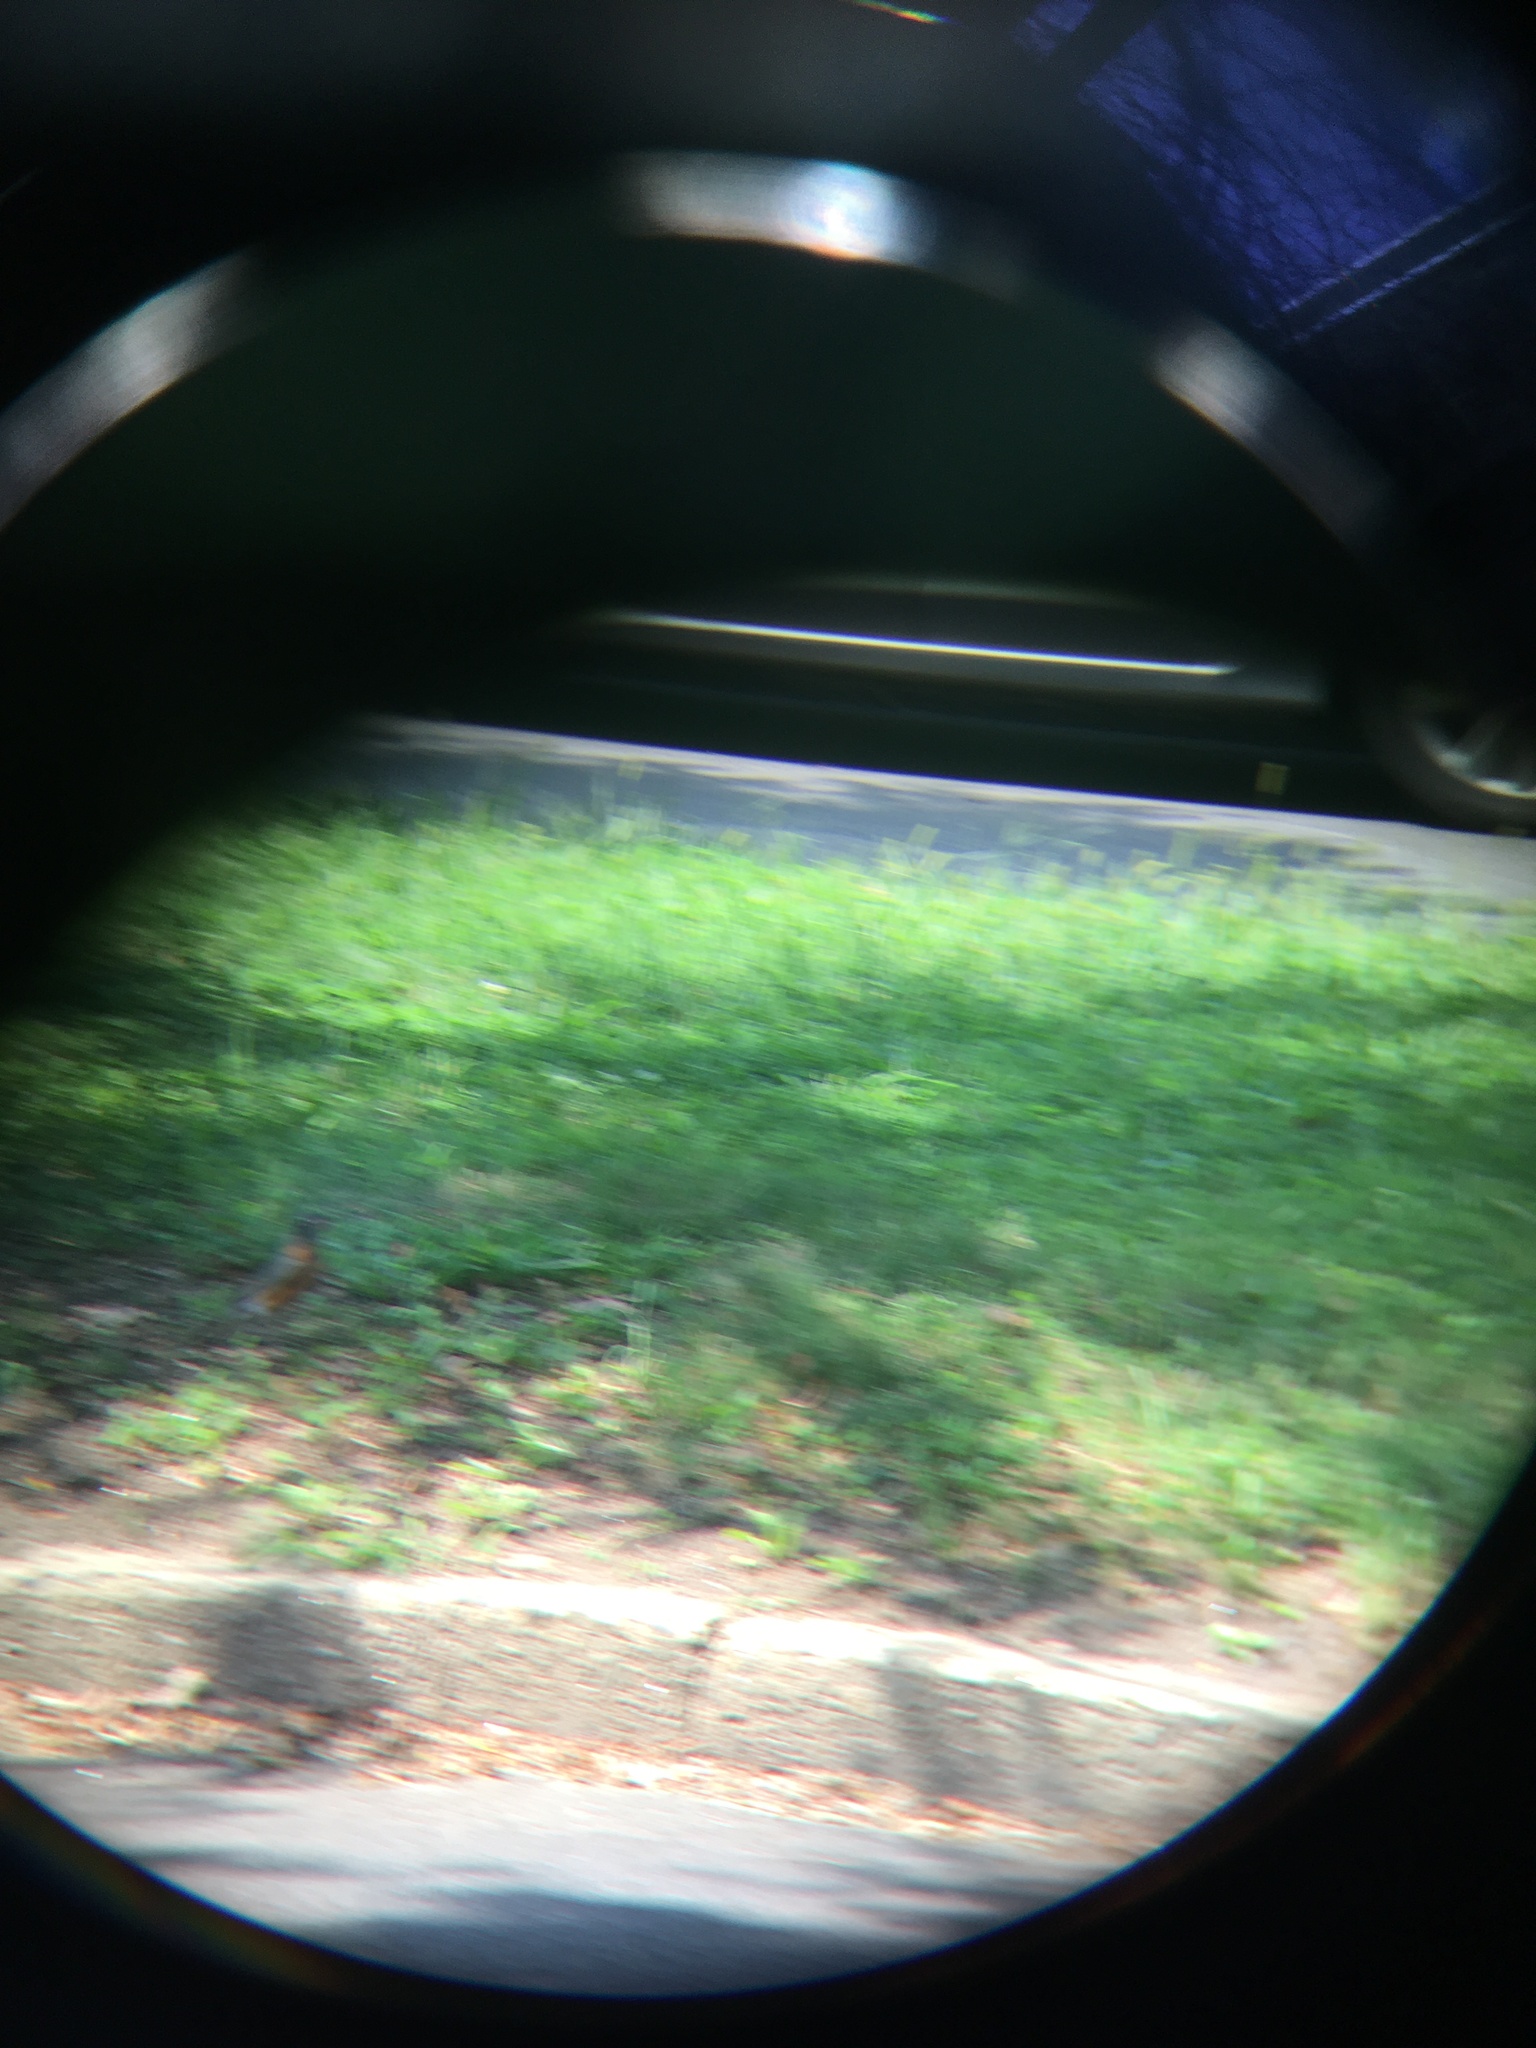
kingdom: Animalia
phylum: Chordata
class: Aves
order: Passeriformes
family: Turdidae
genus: Turdus
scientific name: Turdus migratorius
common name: American robin
